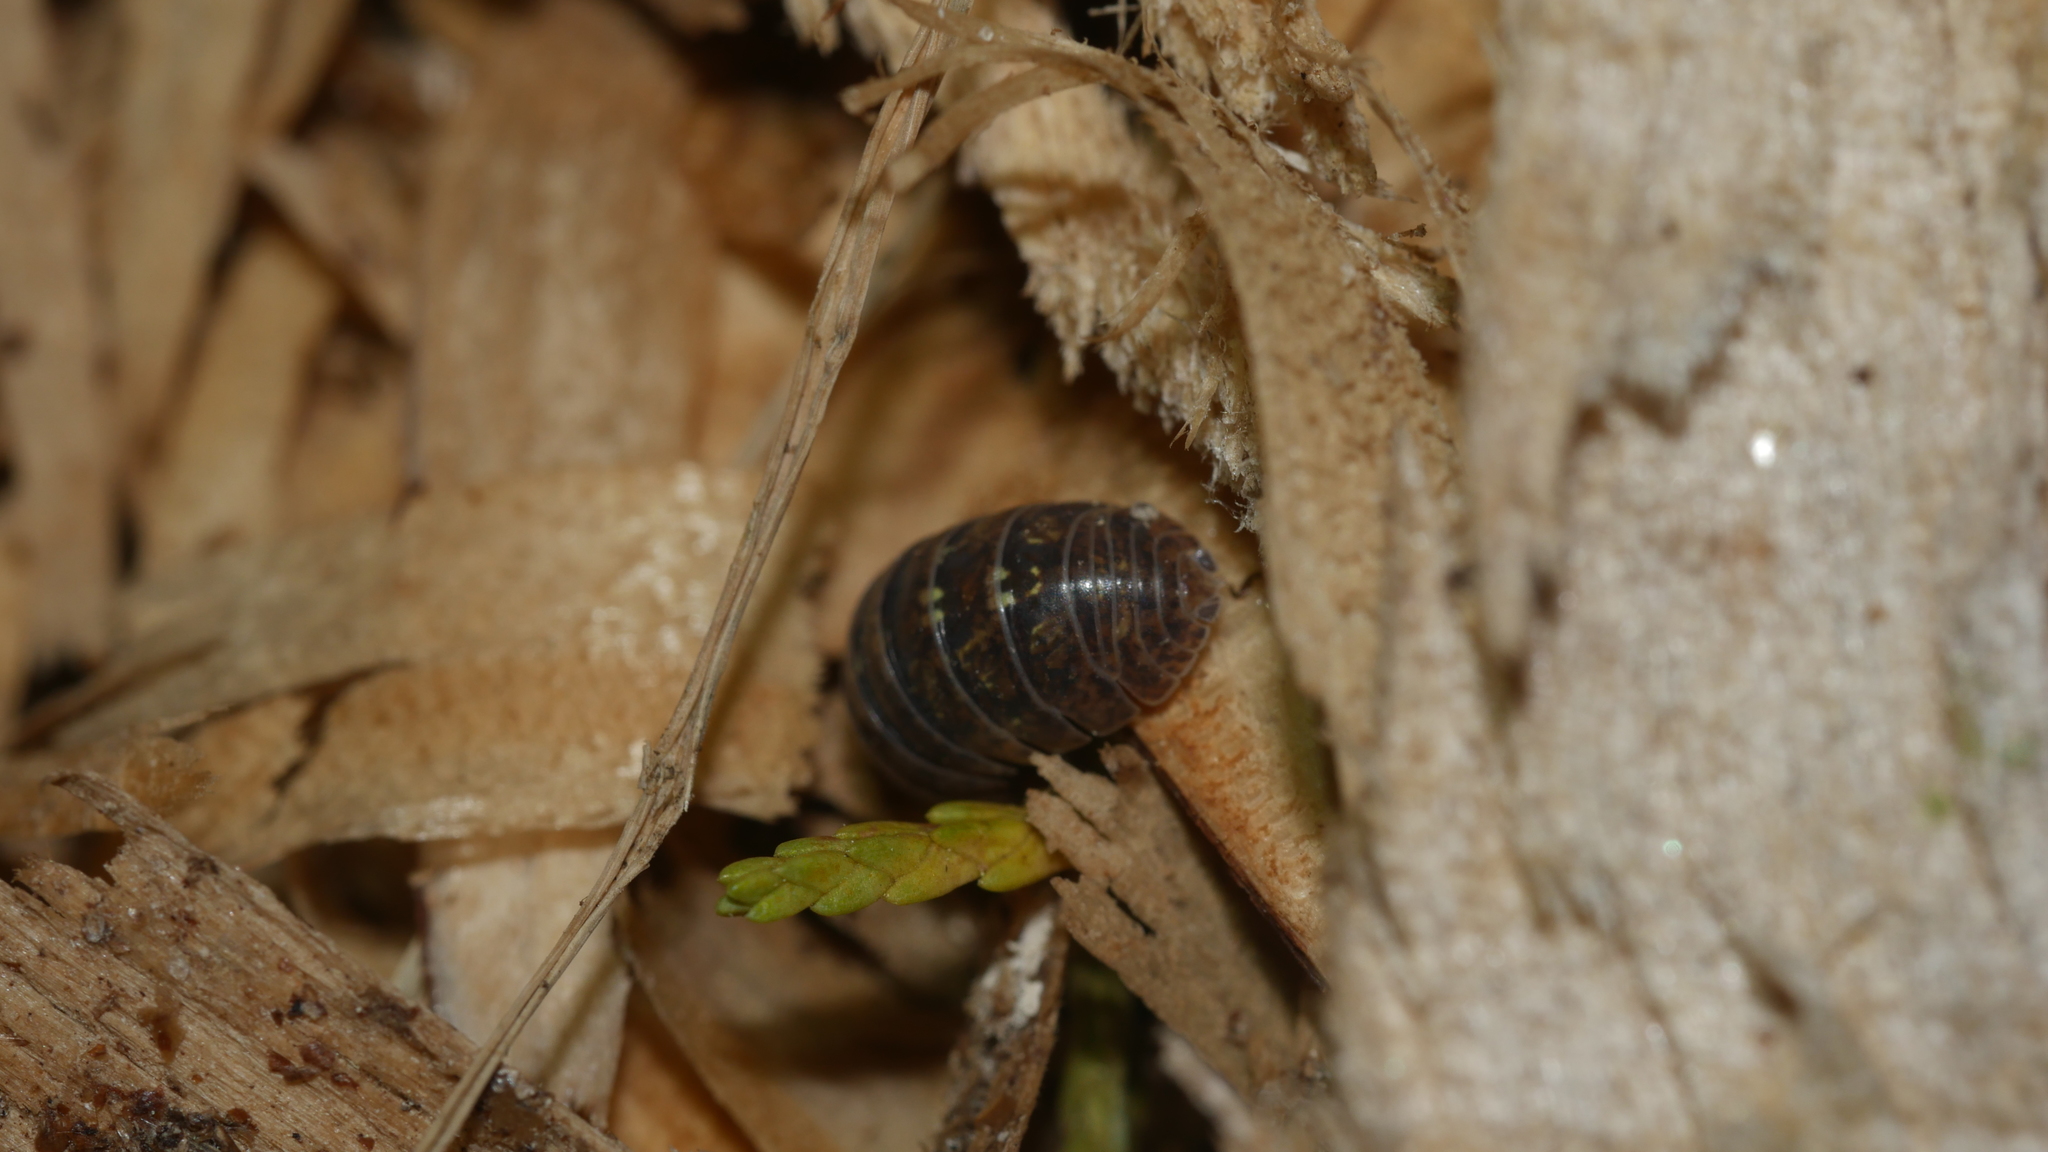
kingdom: Animalia
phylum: Arthropoda
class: Malacostraca
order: Isopoda
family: Armadillidiidae
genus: Armadillidium
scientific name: Armadillidium vulgare
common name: Common pill woodlouse
